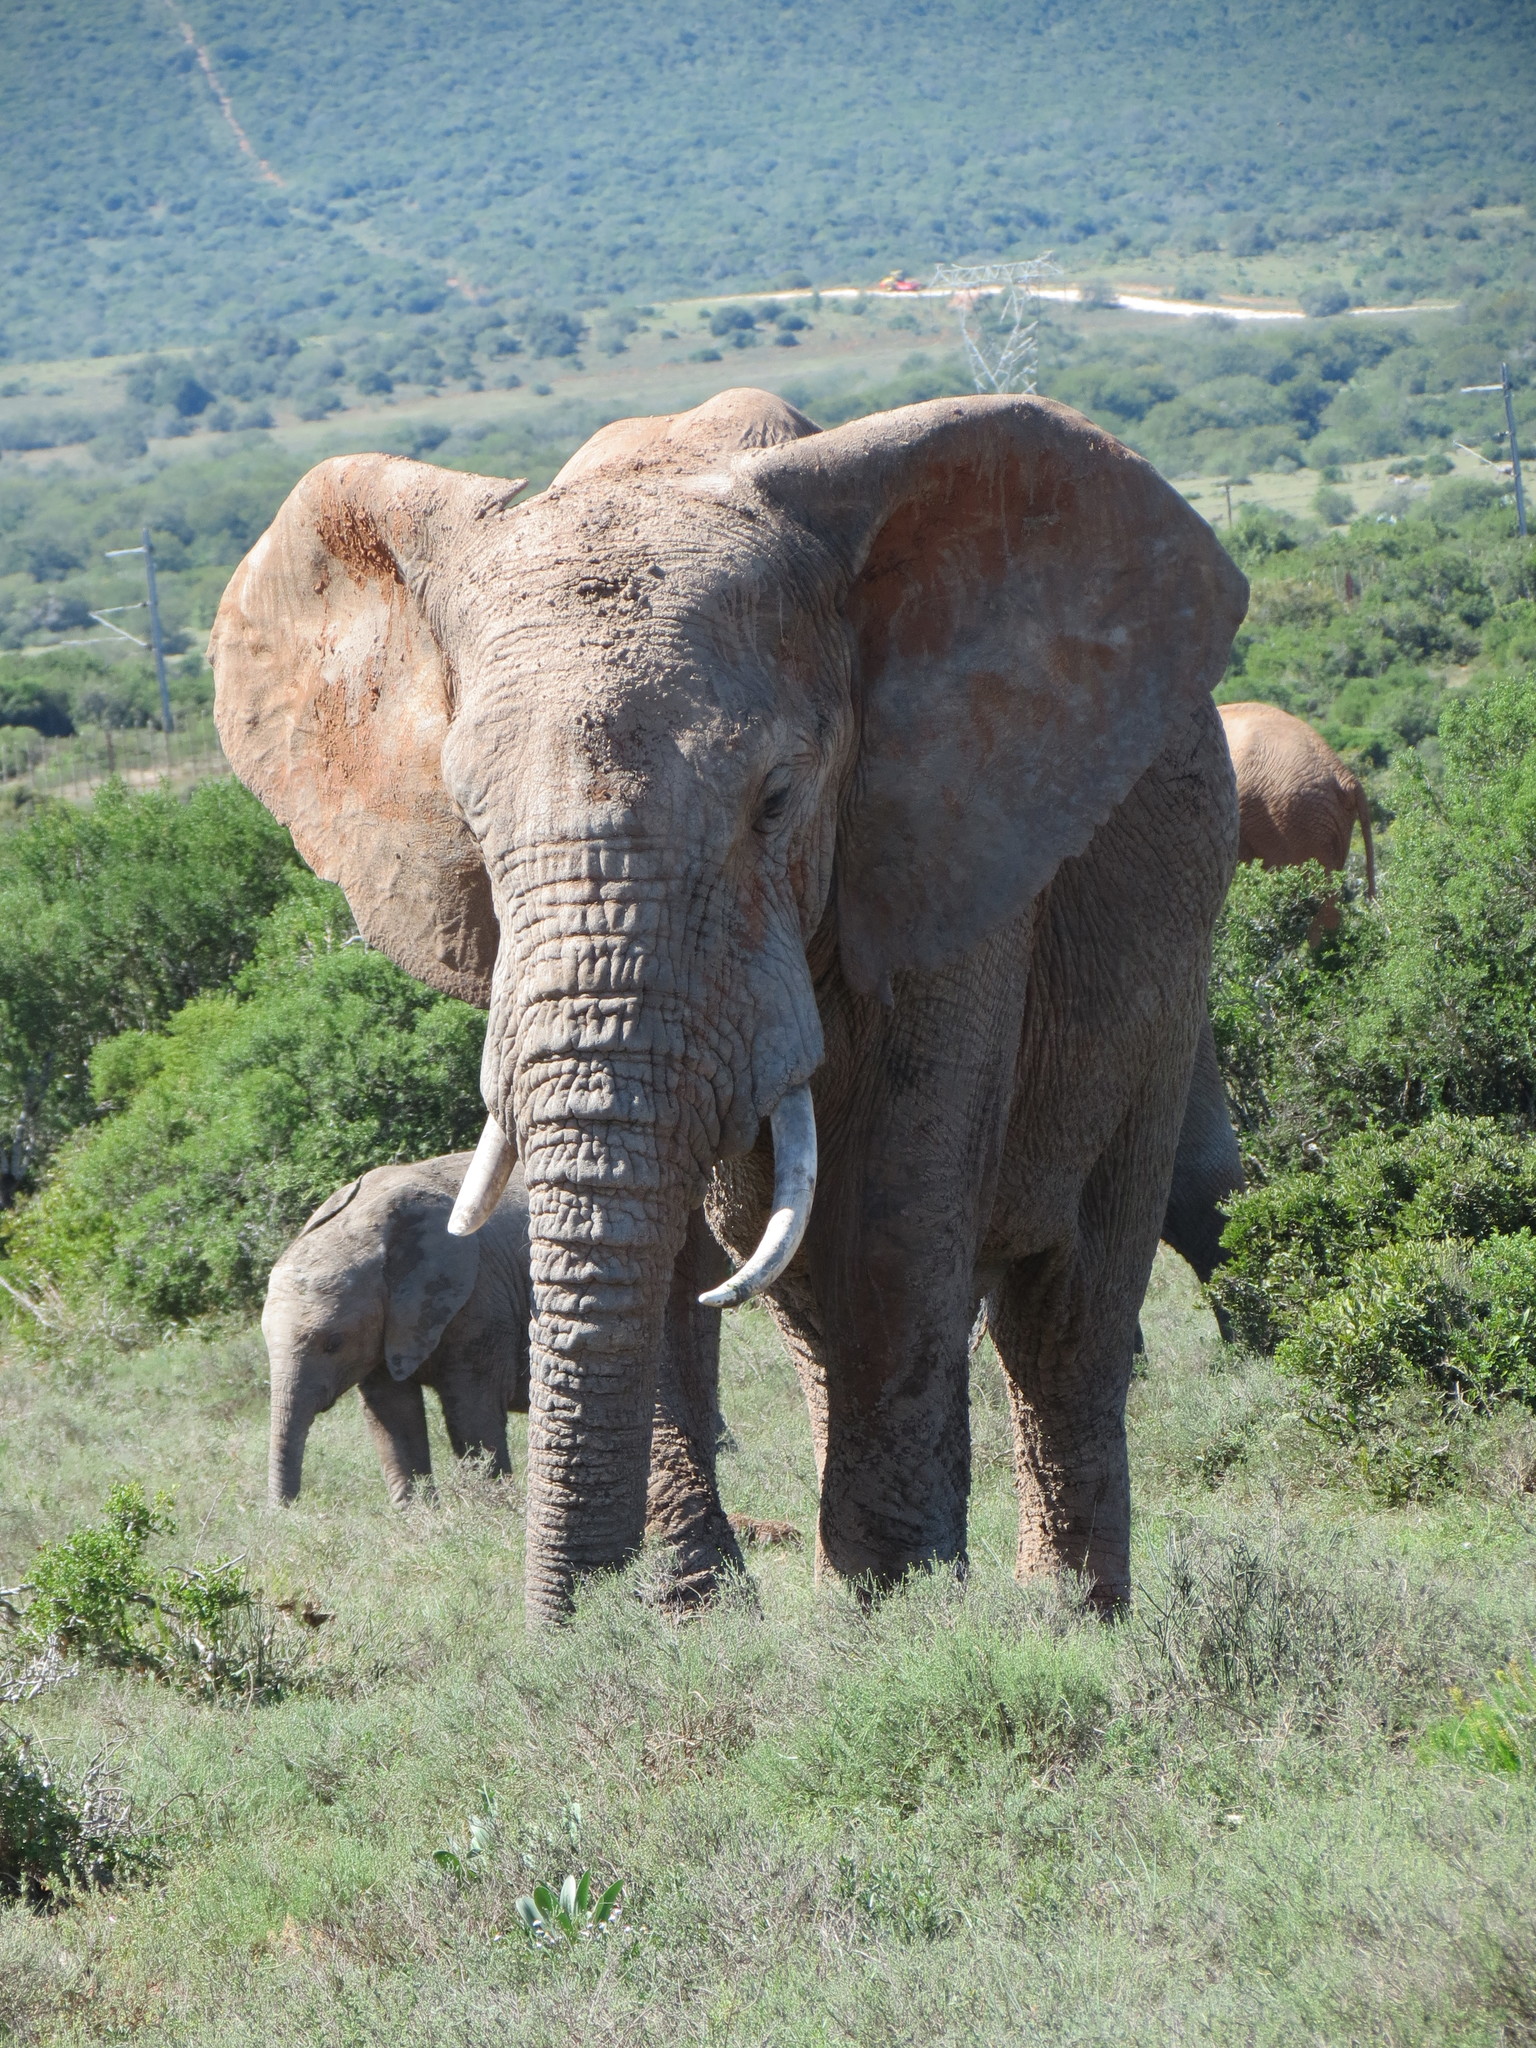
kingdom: Animalia
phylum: Chordata
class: Mammalia
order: Proboscidea
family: Elephantidae
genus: Loxodonta
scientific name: Loxodonta africana
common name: African elephant
